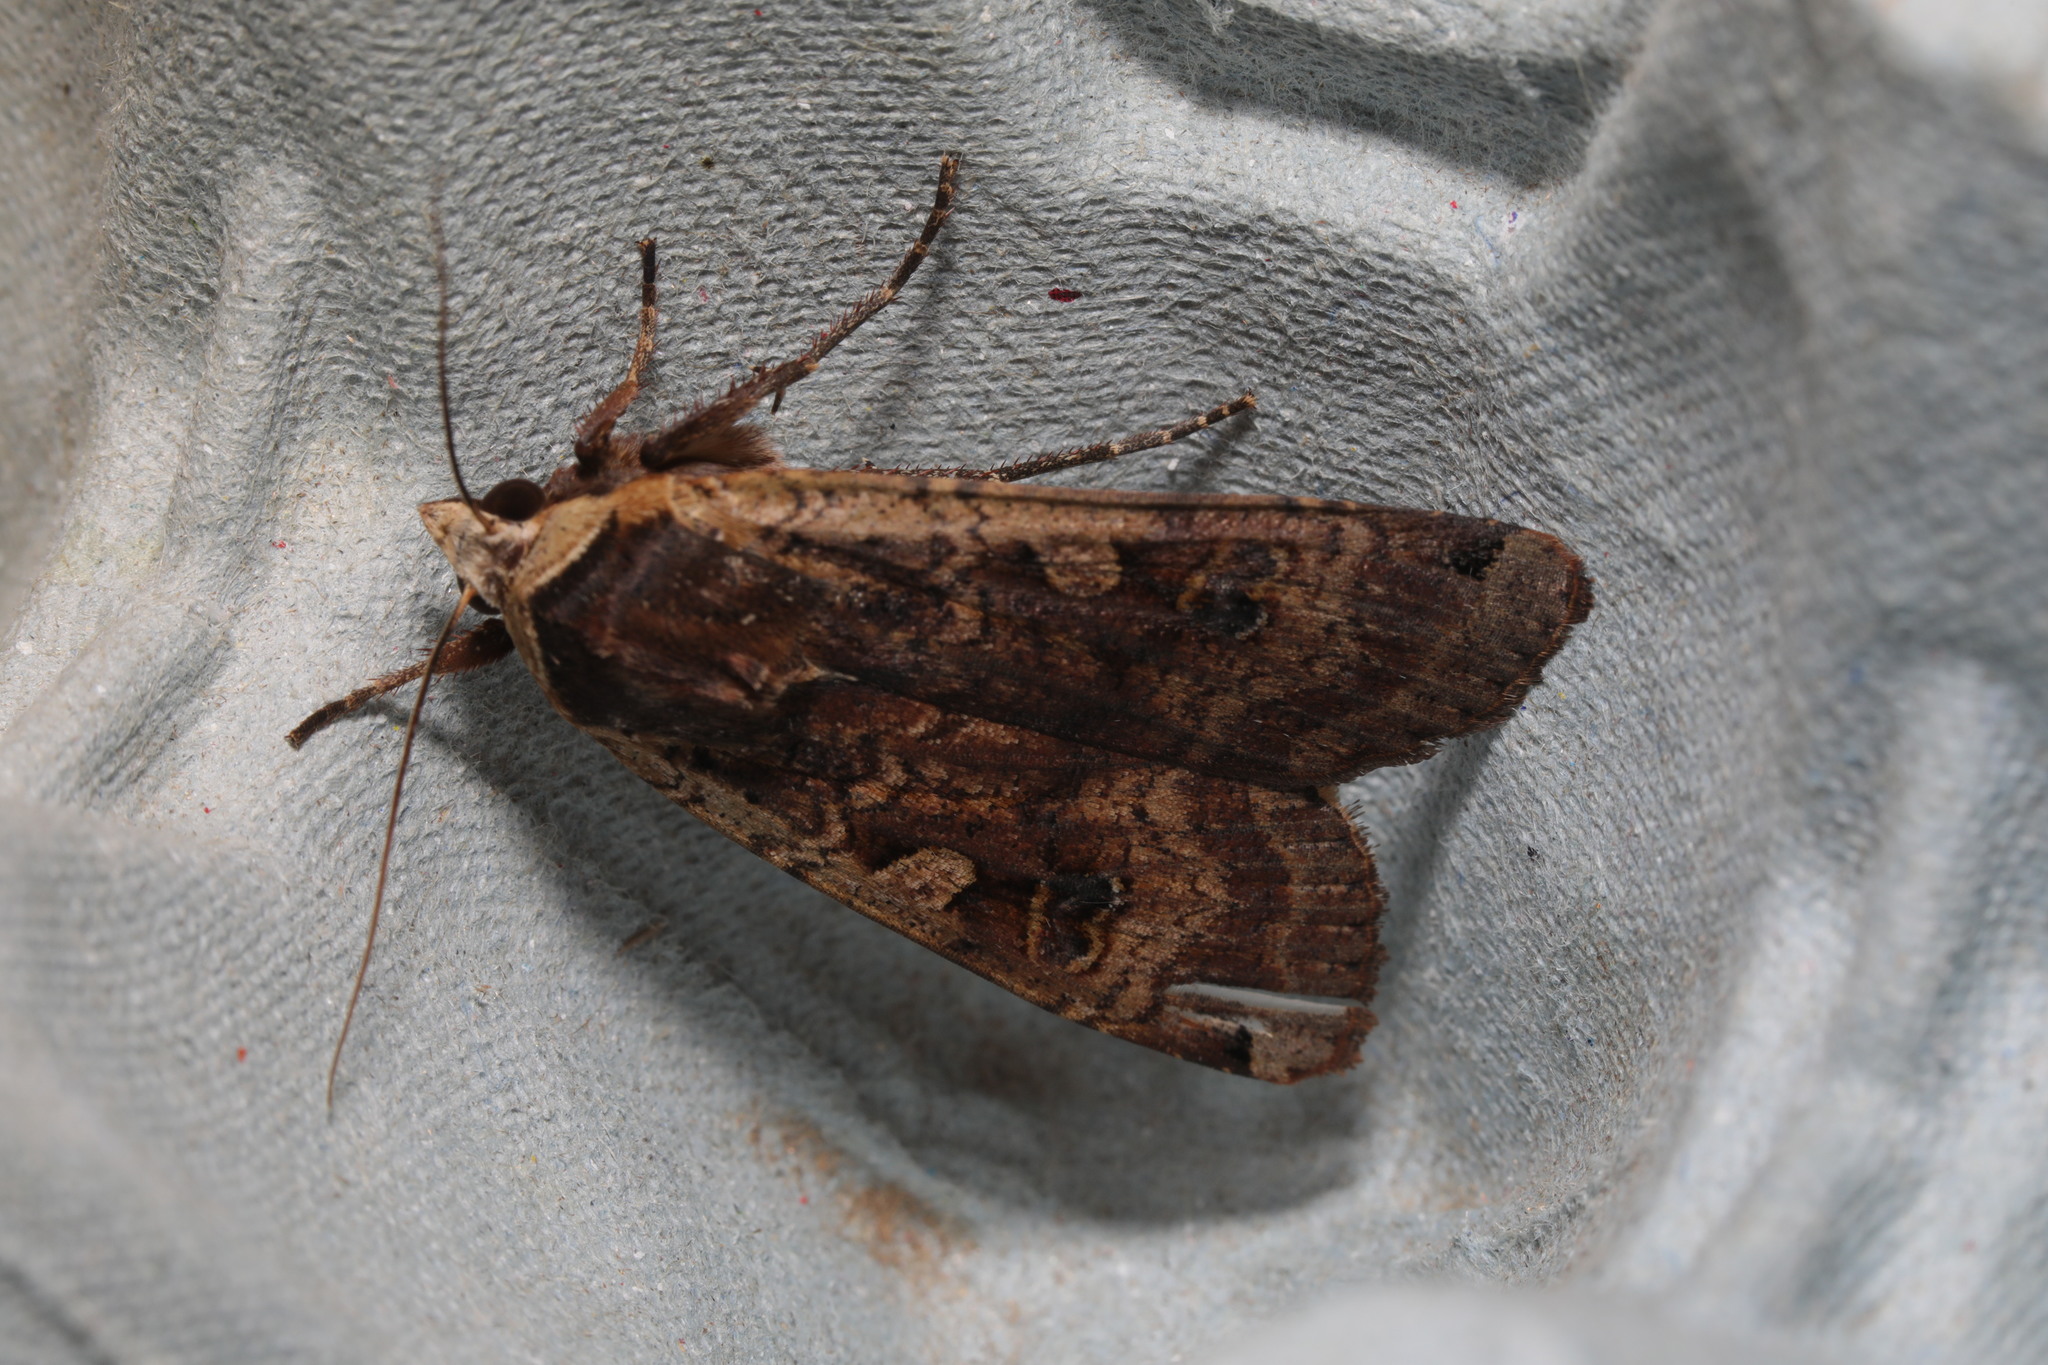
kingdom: Animalia
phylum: Arthropoda
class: Insecta
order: Lepidoptera
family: Noctuidae
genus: Noctua
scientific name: Noctua pronuba
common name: Large yellow underwing
